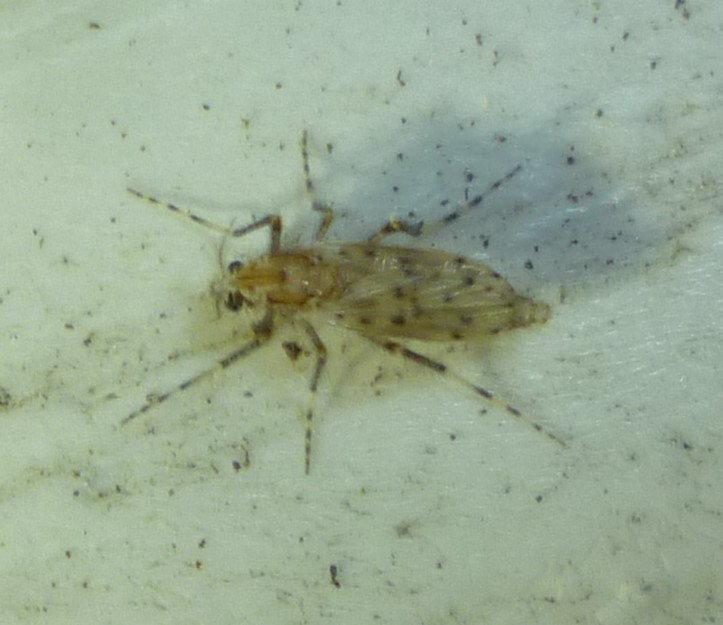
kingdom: Animalia
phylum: Arthropoda
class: Insecta
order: Diptera
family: Chaoboridae
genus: Chaoborus
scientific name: Chaoborus punctipennis
